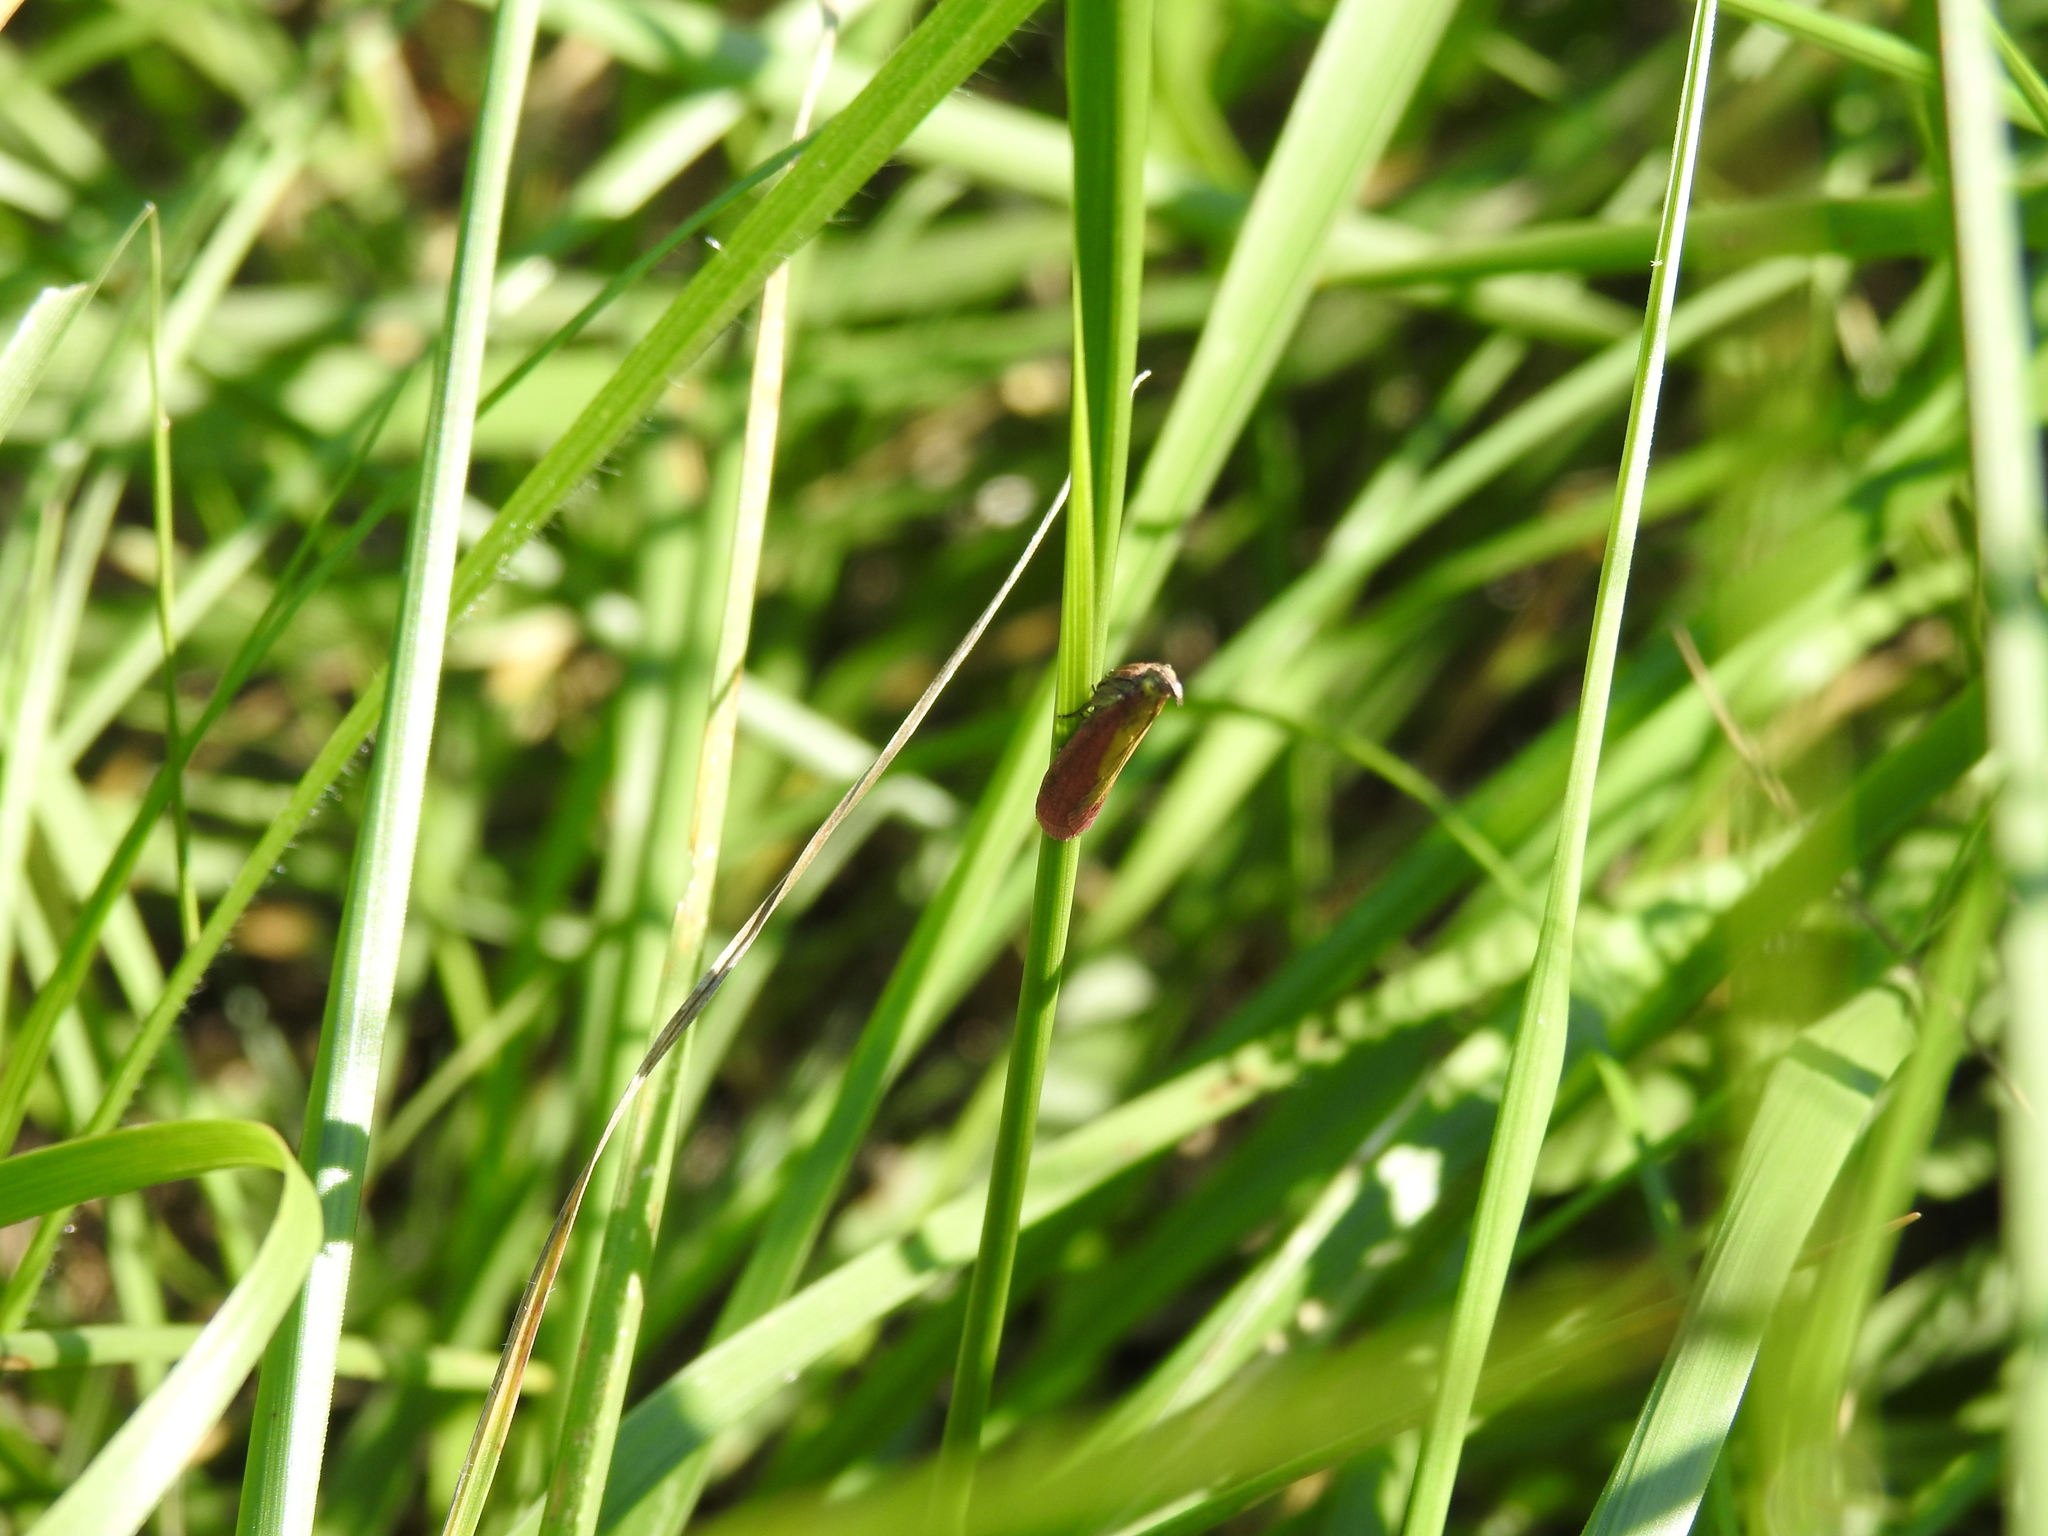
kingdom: Animalia
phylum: Arthropoda
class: Insecta
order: Lepidoptera
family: Pyralidae
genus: Oncocera
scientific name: Oncocera semirubella
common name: Rosy-striped knot-horn
